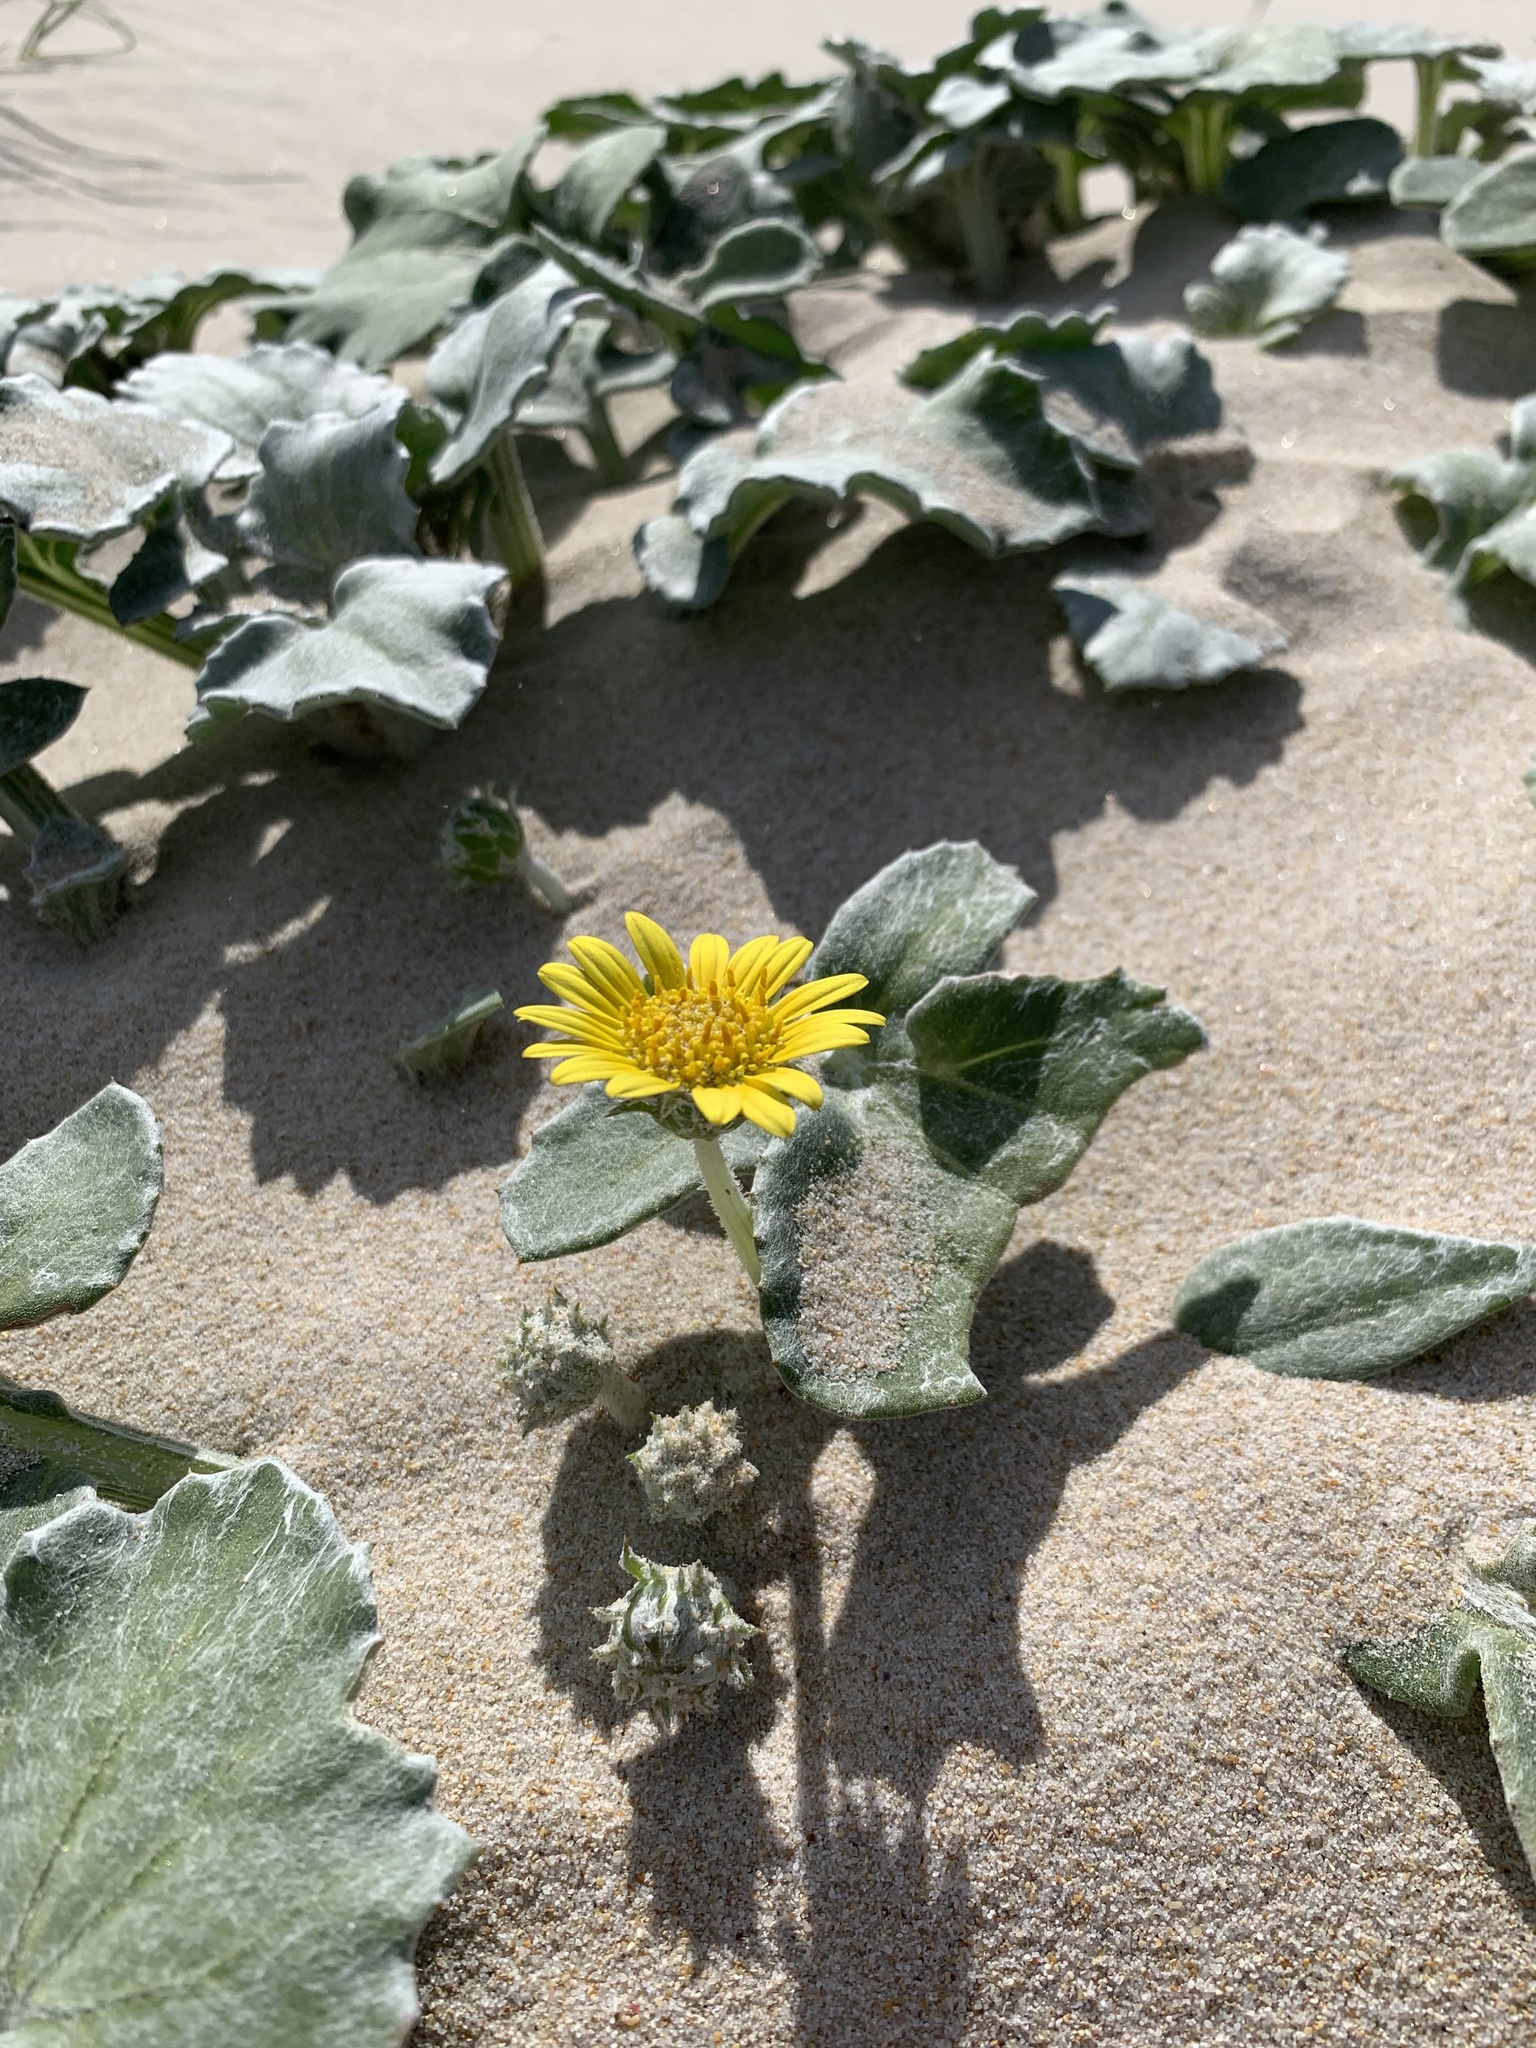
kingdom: Plantae
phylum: Tracheophyta
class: Magnoliopsida
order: Asterales
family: Asteraceae
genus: Arctotheca
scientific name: Arctotheca populifolia
